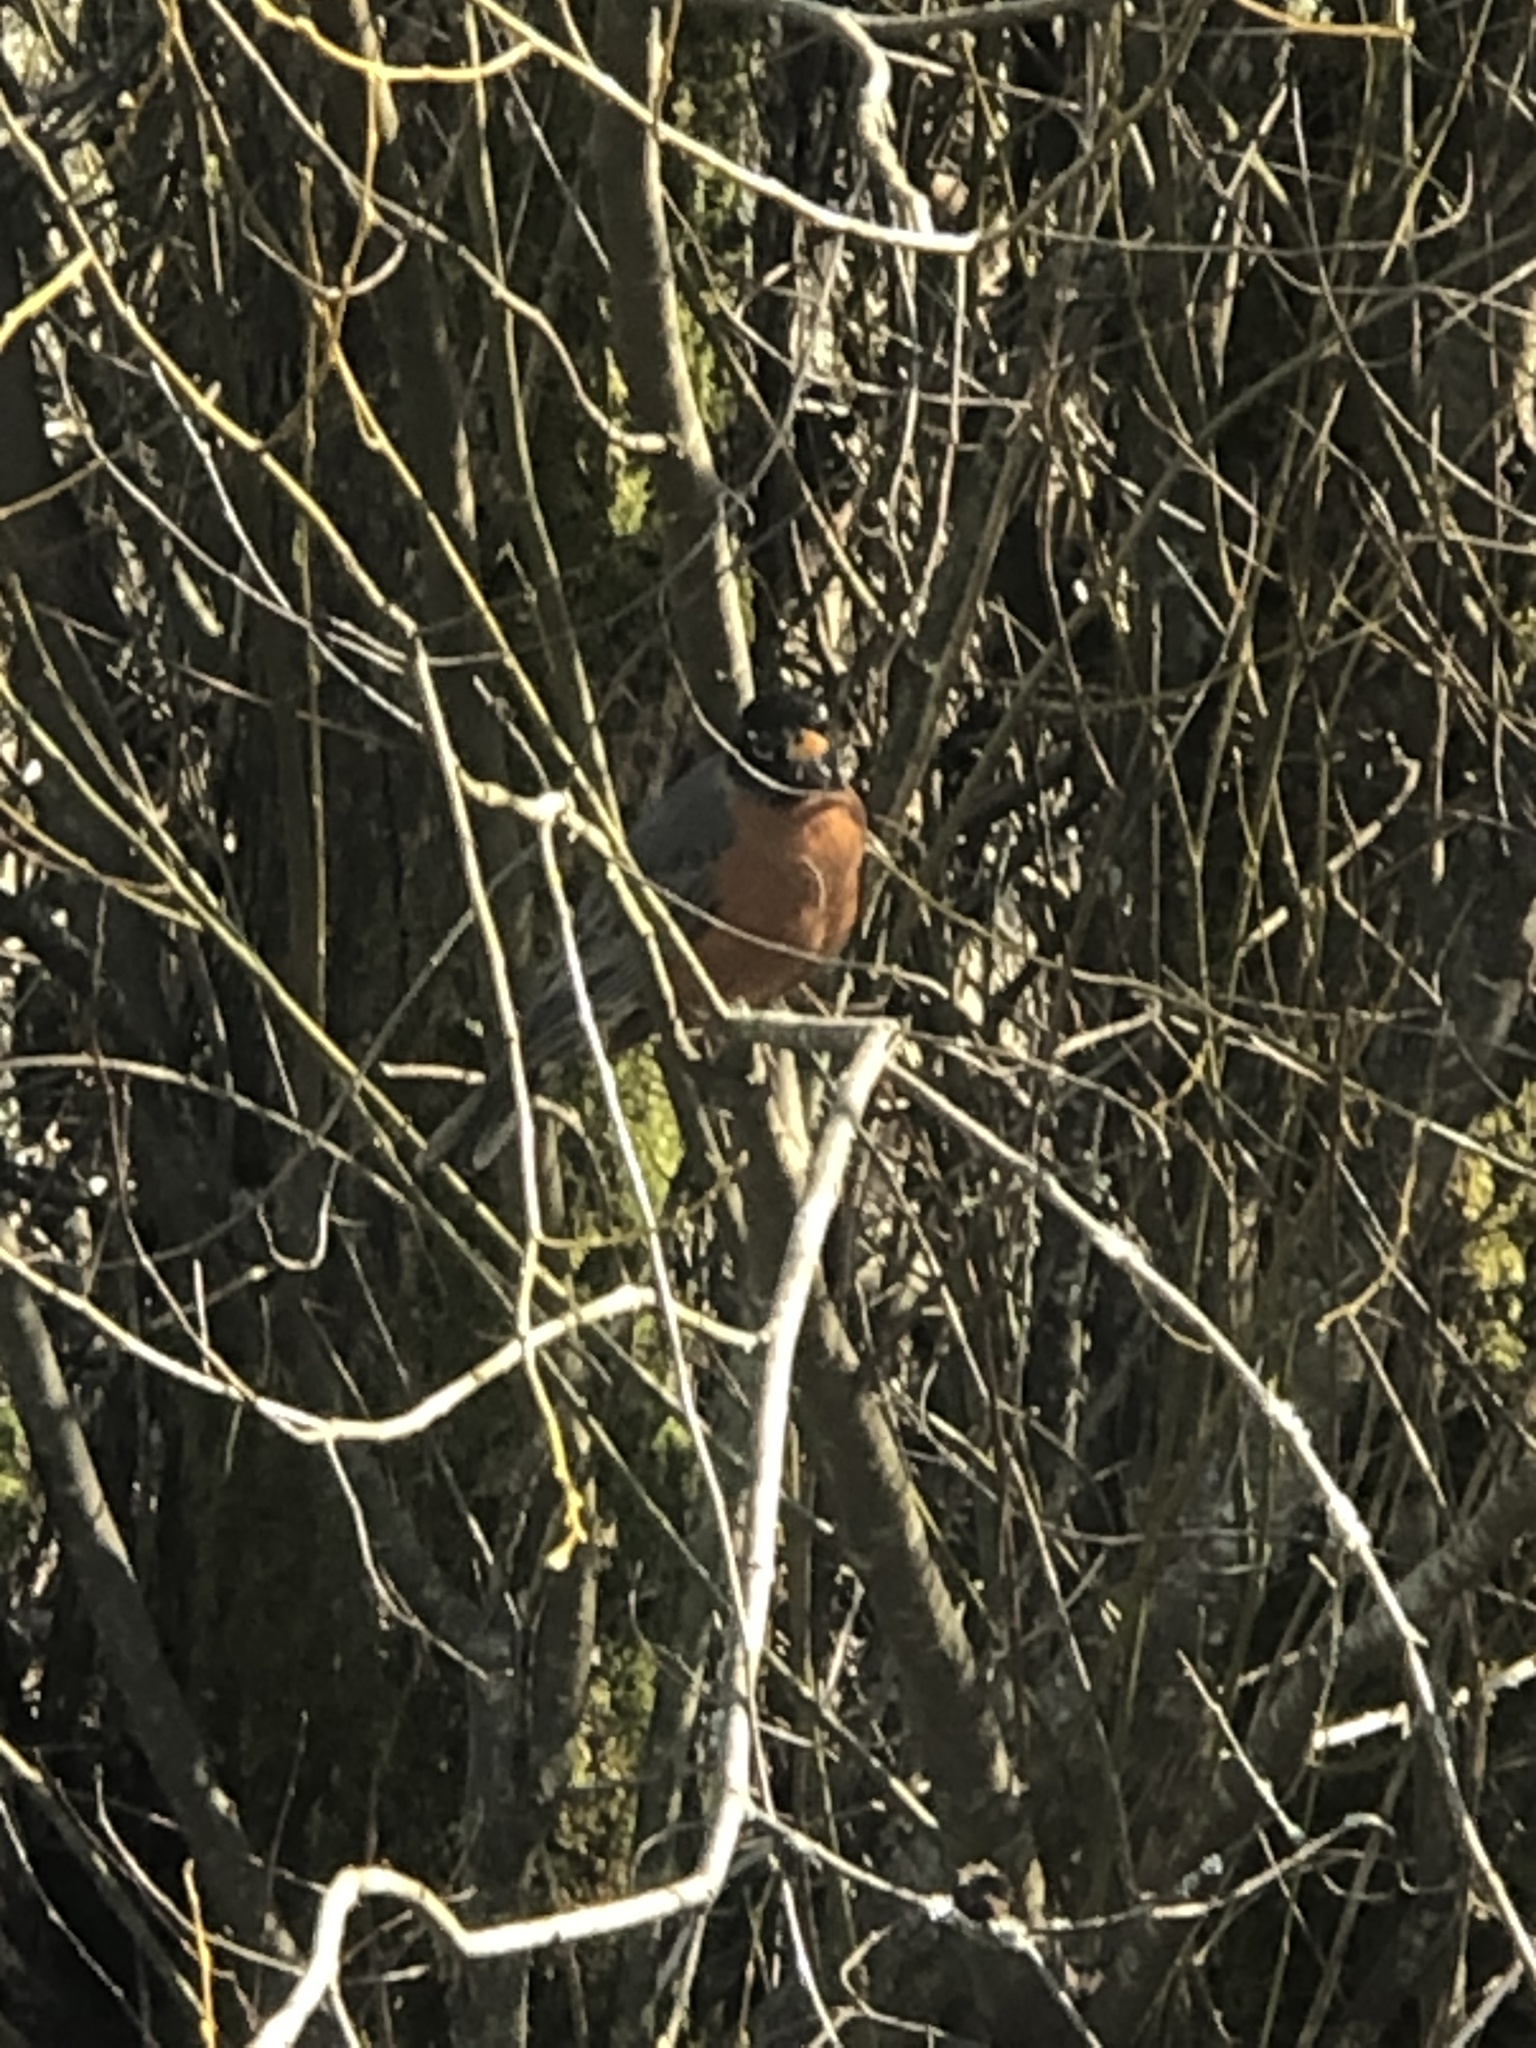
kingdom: Animalia
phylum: Chordata
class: Aves
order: Passeriformes
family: Turdidae
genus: Turdus
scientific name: Turdus migratorius
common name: American robin
